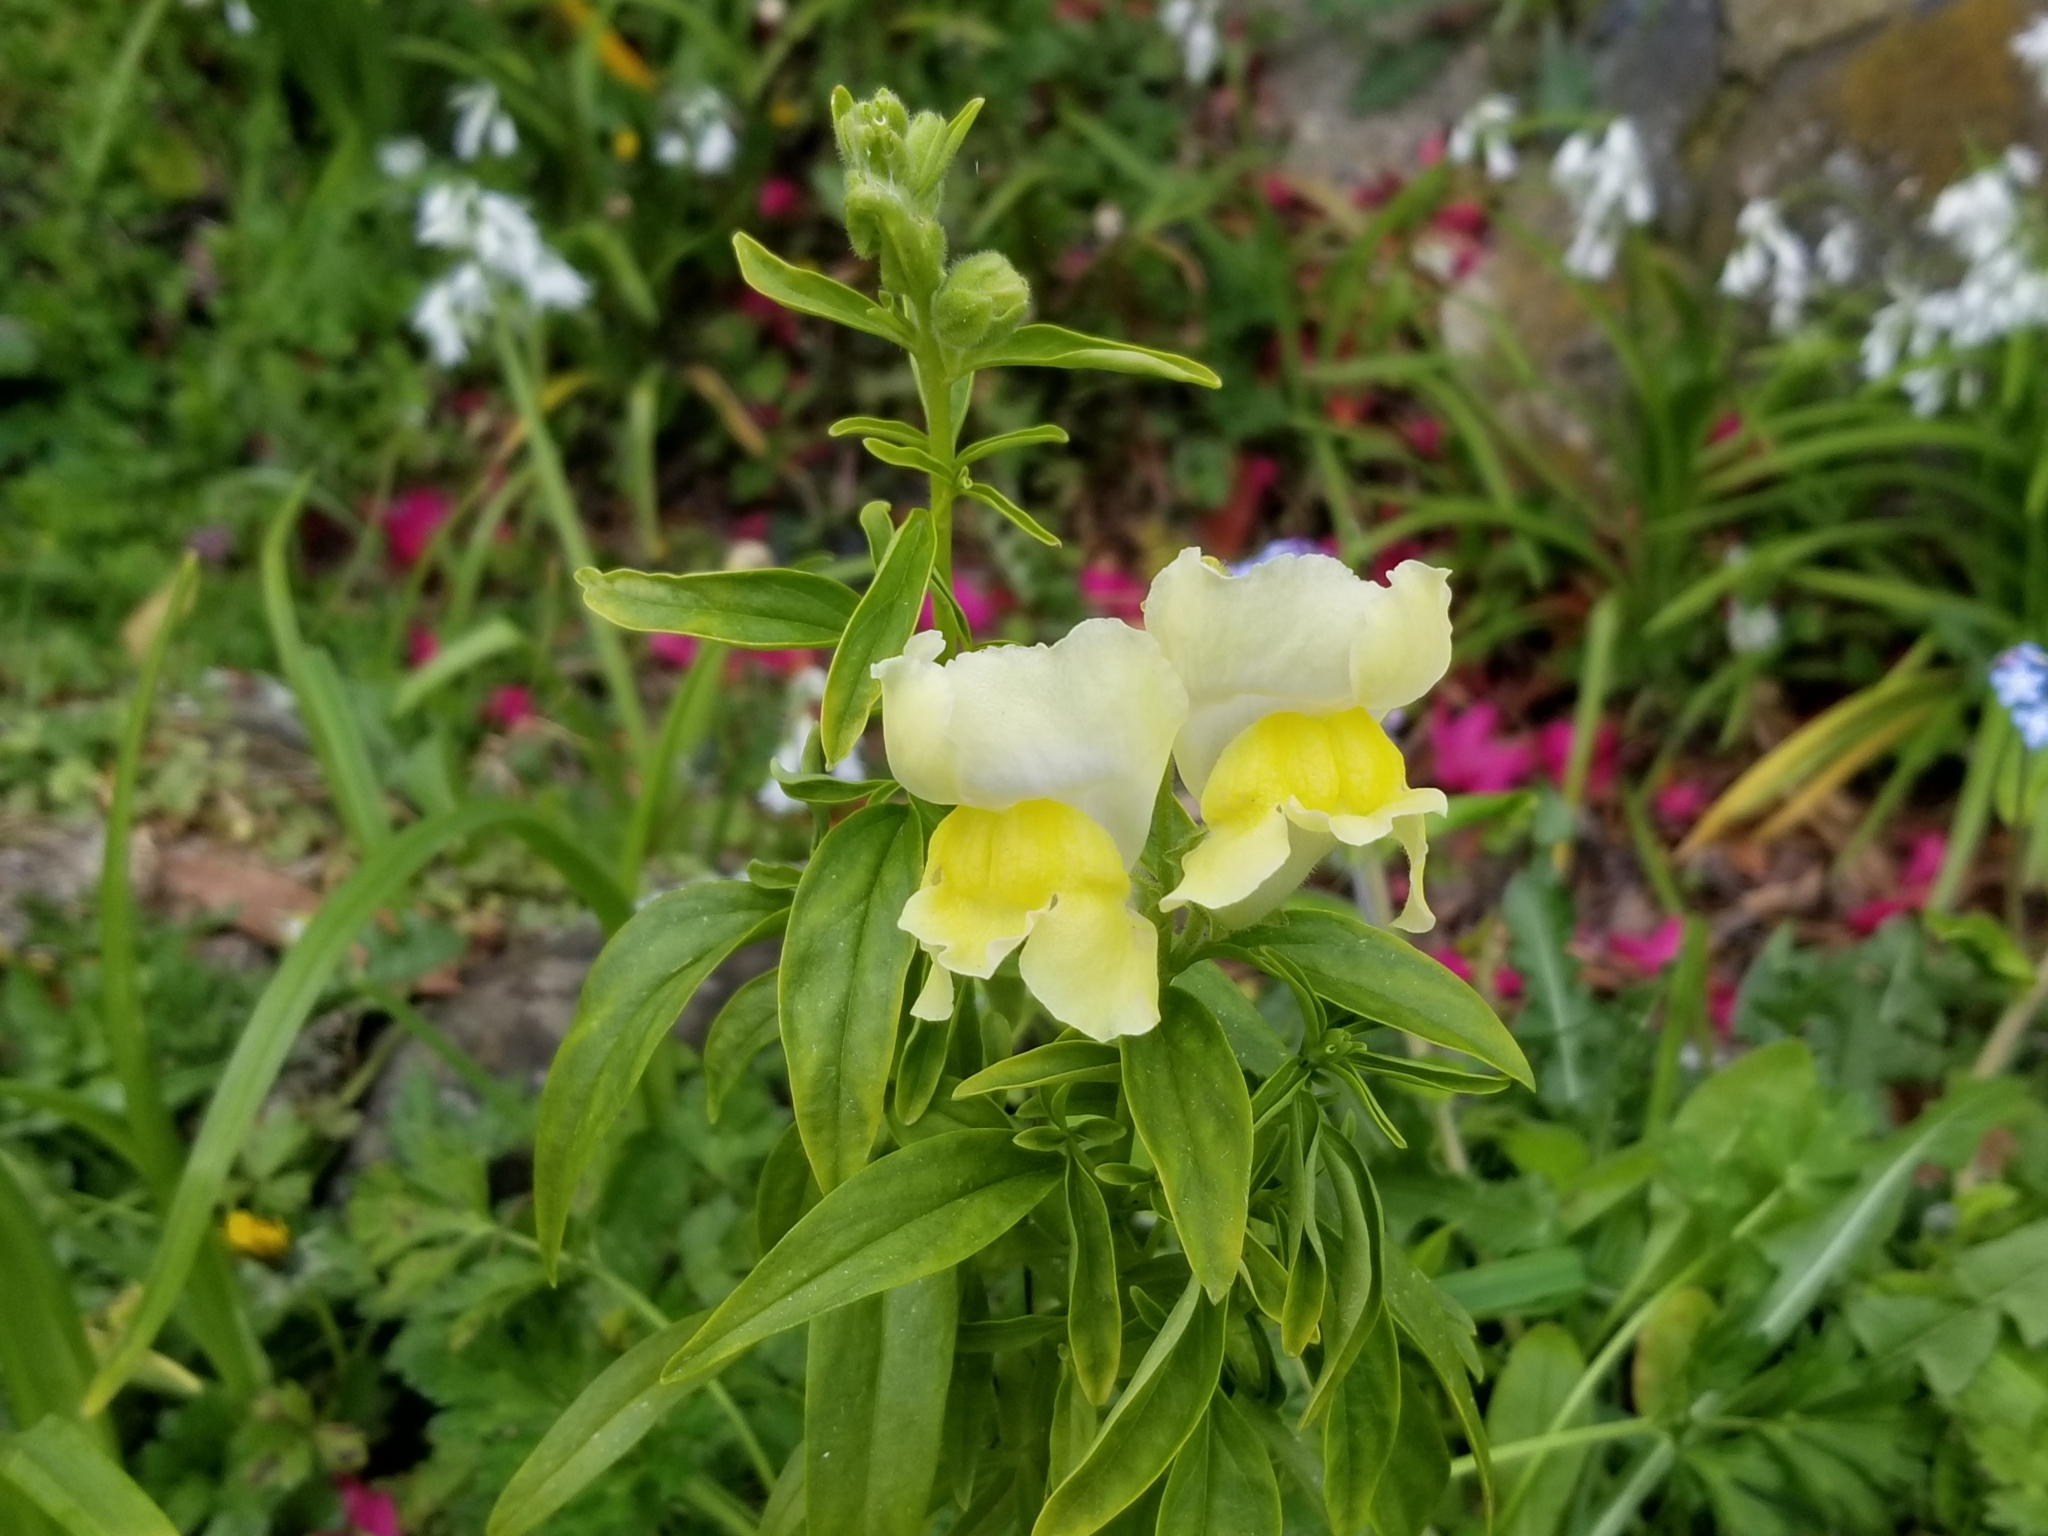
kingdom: Plantae
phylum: Tracheophyta
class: Magnoliopsida
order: Lamiales
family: Plantaginaceae
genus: Antirrhinum
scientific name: Antirrhinum majus
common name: Snapdragon
